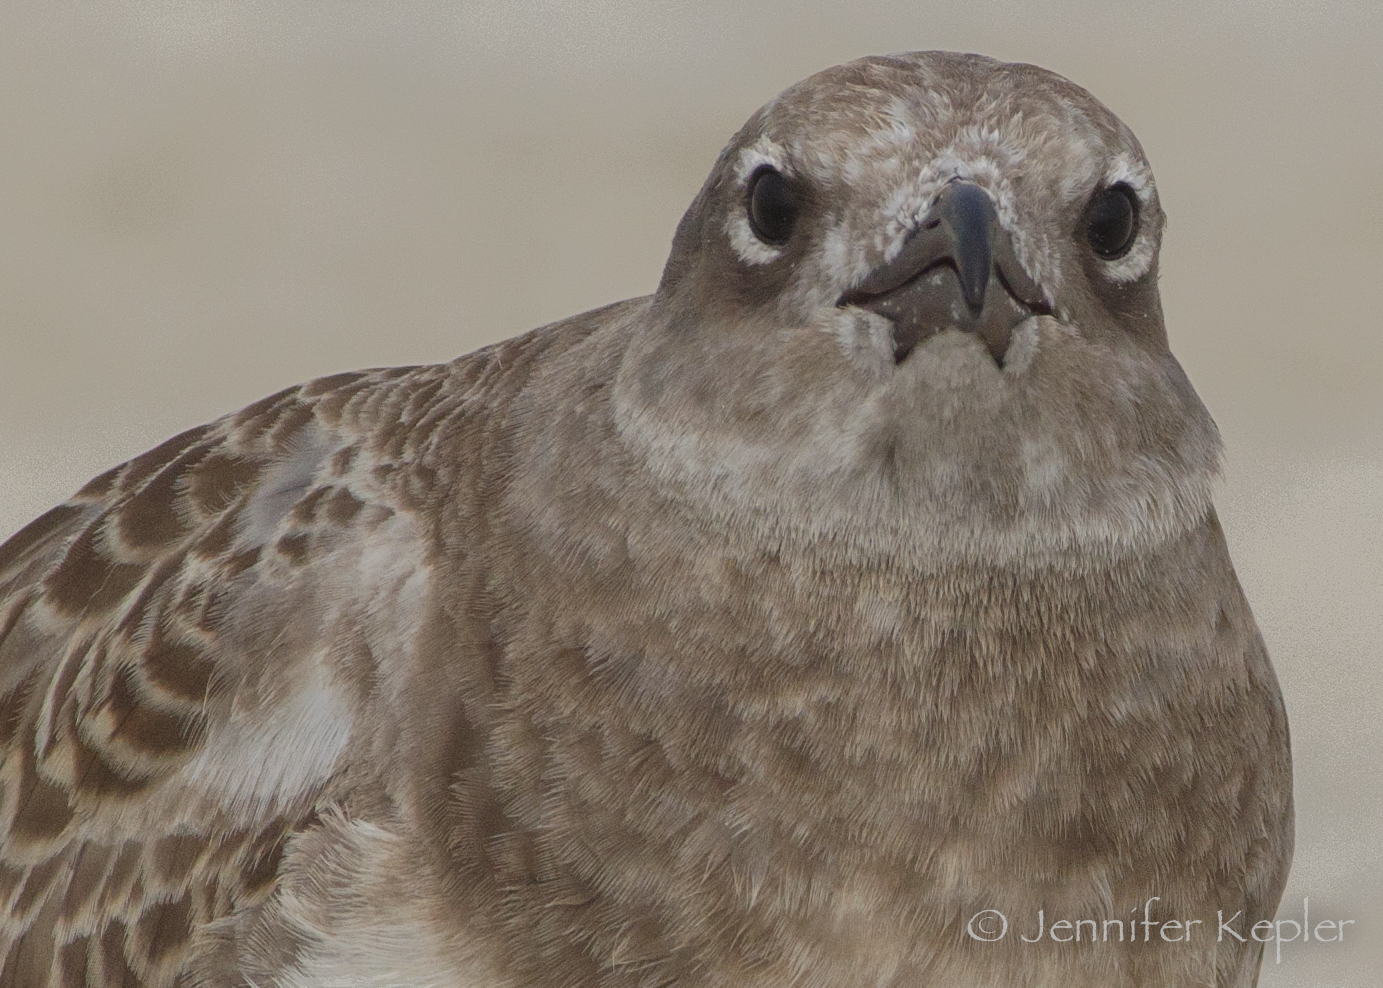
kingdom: Animalia
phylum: Chordata
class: Aves
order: Charadriiformes
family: Laridae
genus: Leucophaeus
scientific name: Leucophaeus atricilla
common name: Laughing gull
